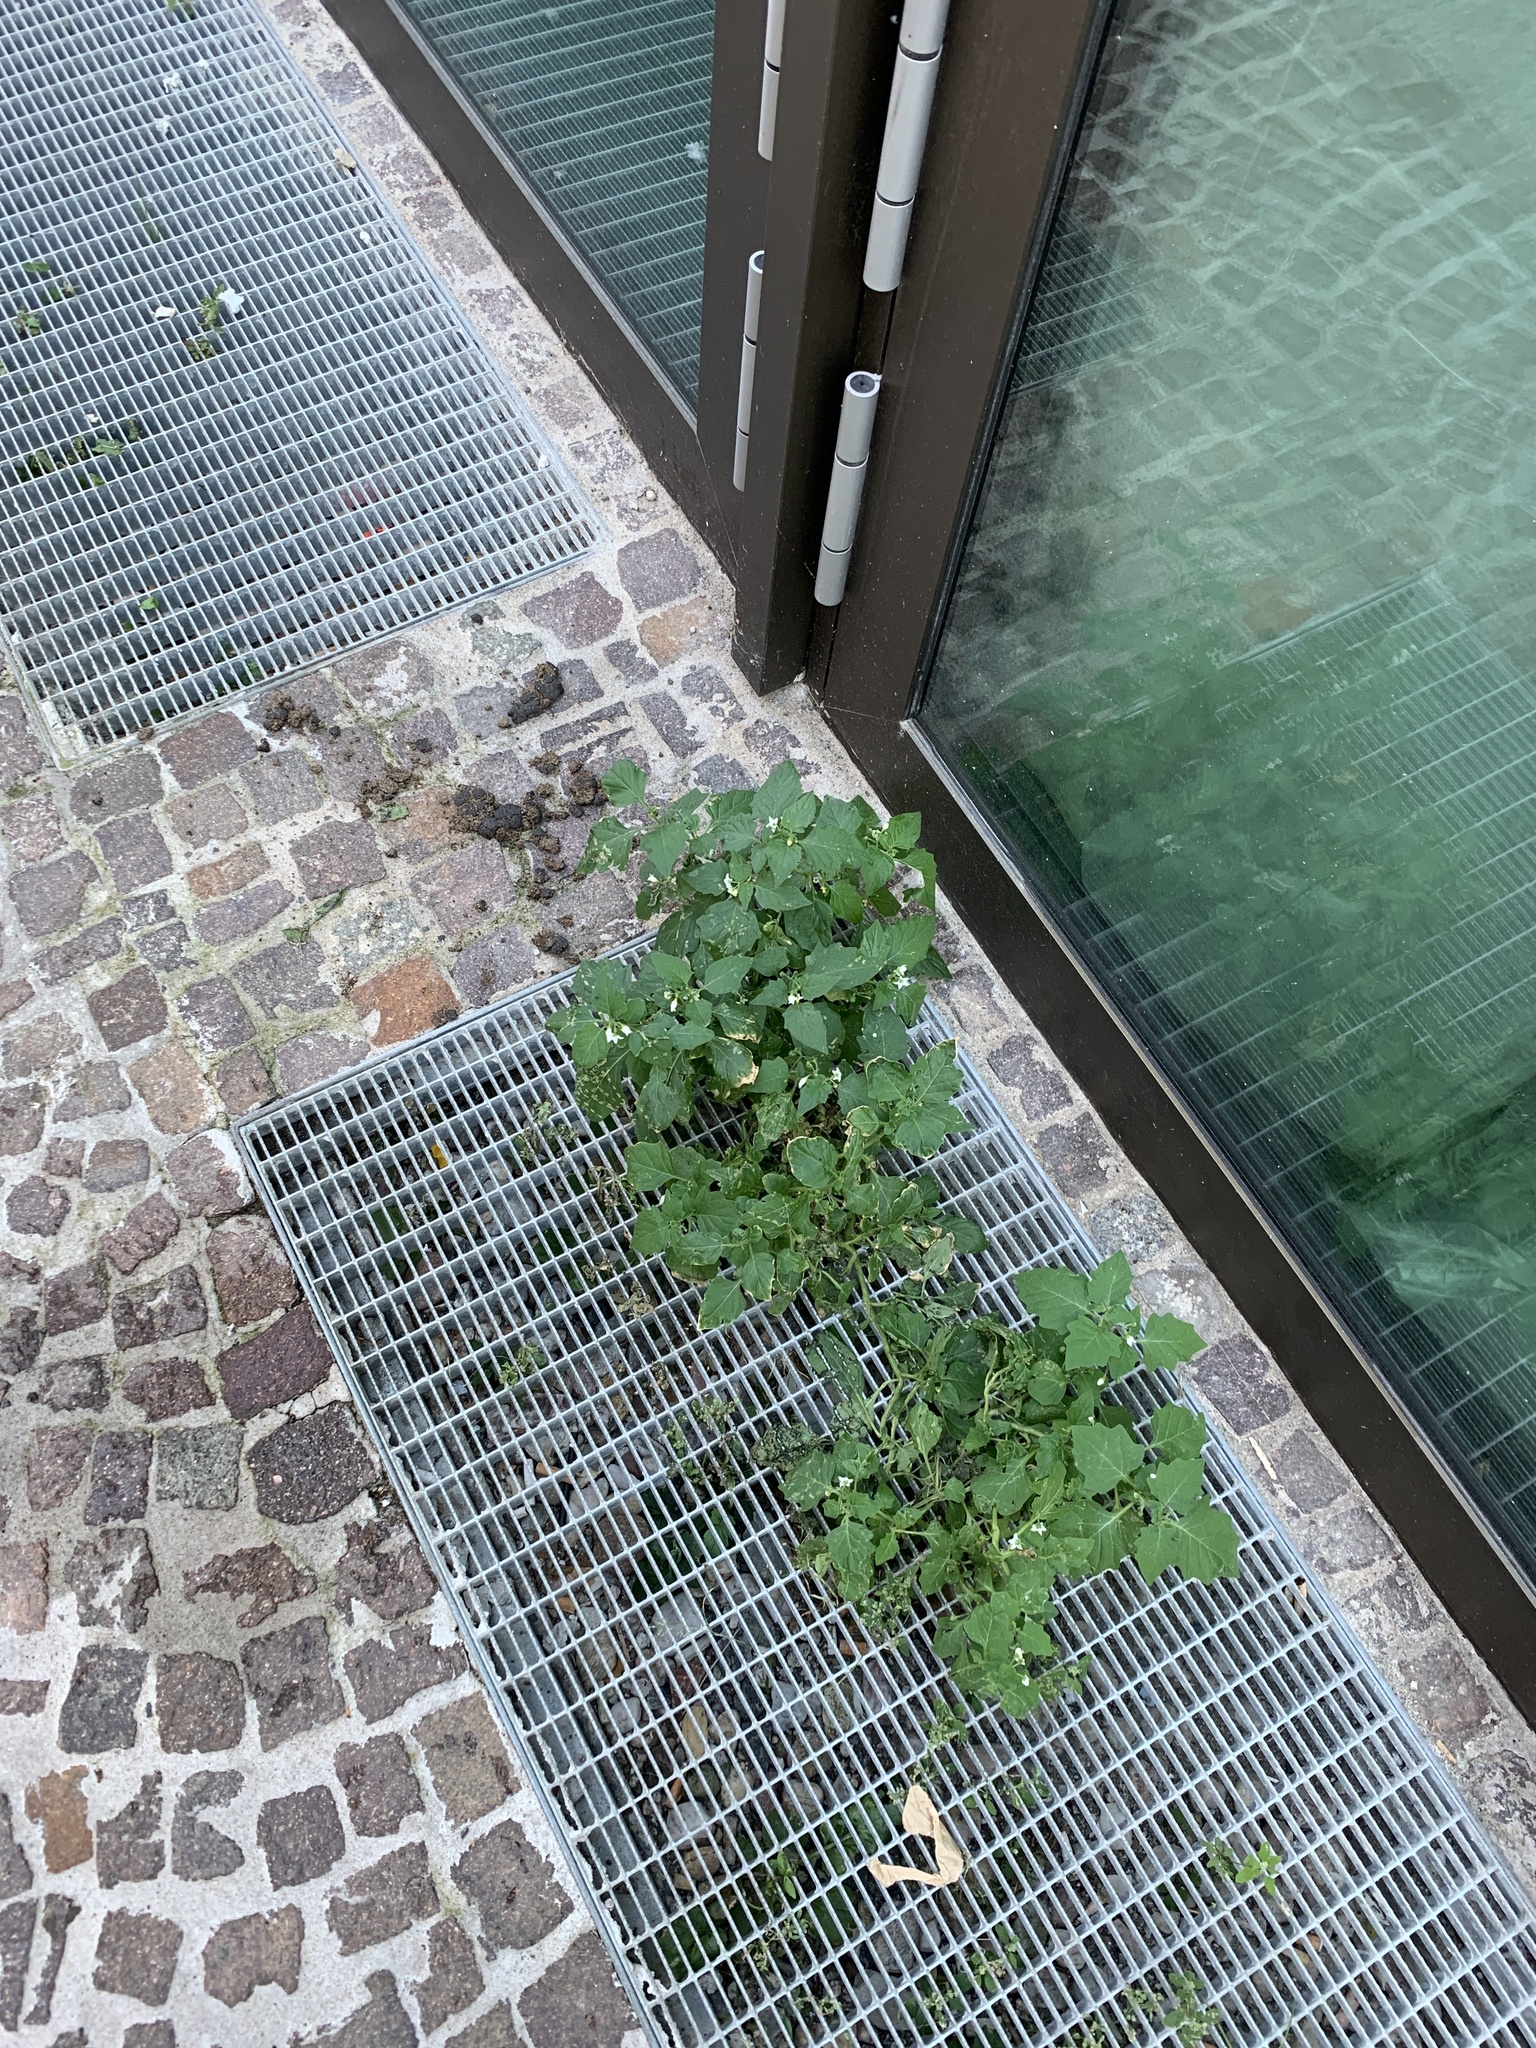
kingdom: Plantae
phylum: Tracheophyta
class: Magnoliopsida
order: Solanales
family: Solanaceae
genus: Solanum
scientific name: Solanum nigrum
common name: Black nightshade
